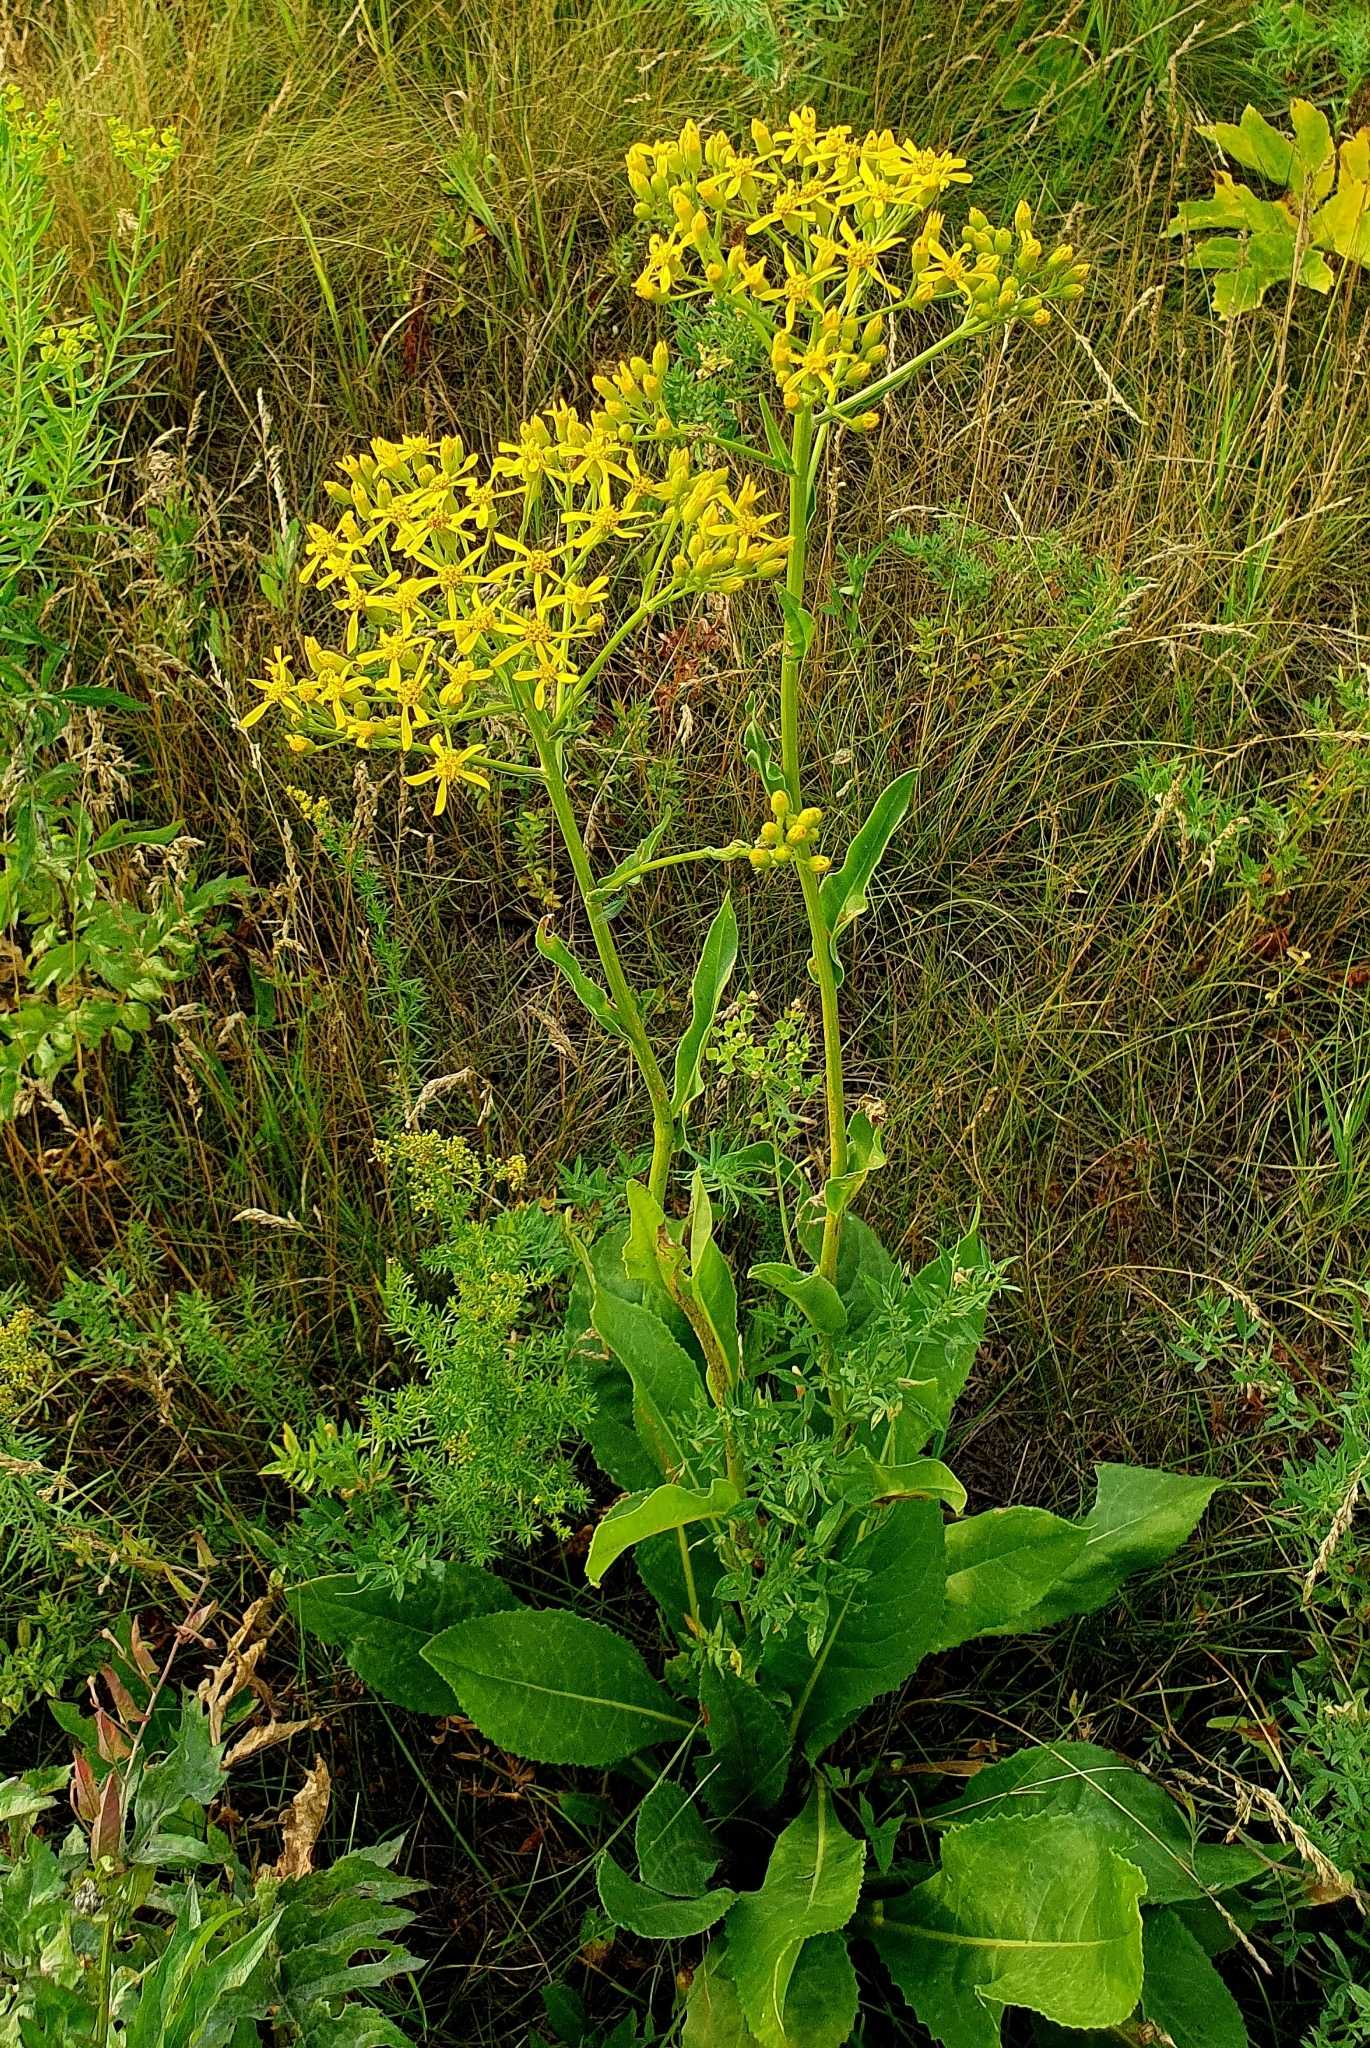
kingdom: Plantae
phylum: Tracheophyta
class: Magnoliopsida
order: Asterales
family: Asteraceae
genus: Senecio
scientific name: Senecio doria
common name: Golden ragwort
